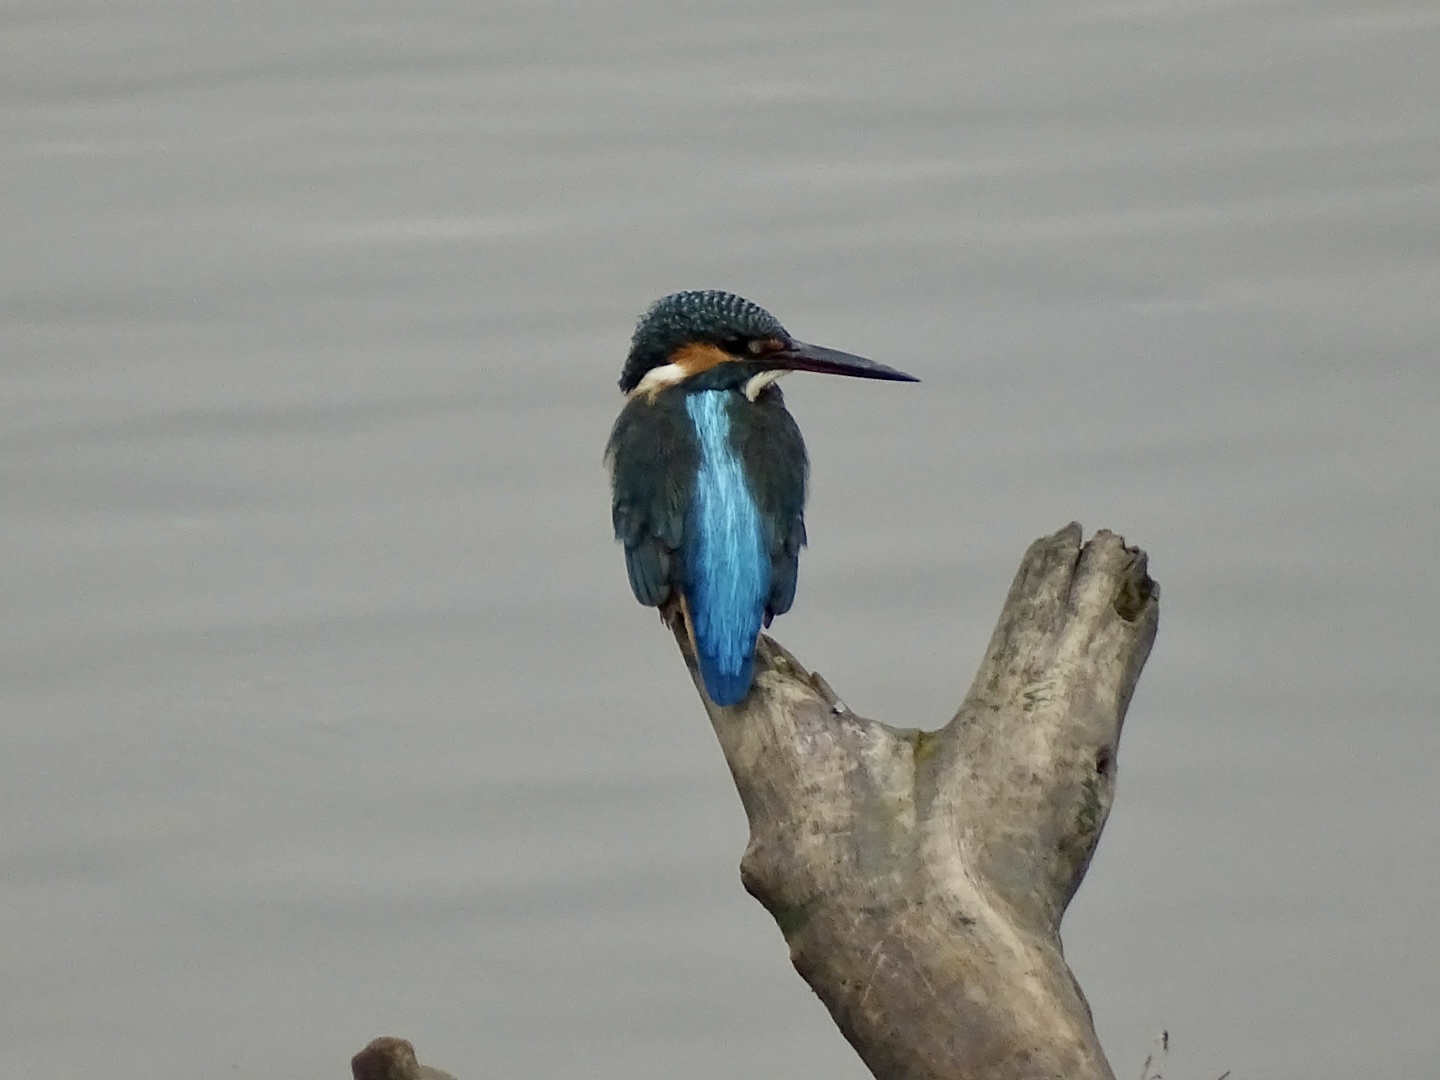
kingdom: Animalia
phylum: Chordata
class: Aves
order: Coraciiformes
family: Alcedinidae
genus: Alcedo
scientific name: Alcedo atthis
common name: Common kingfisher
